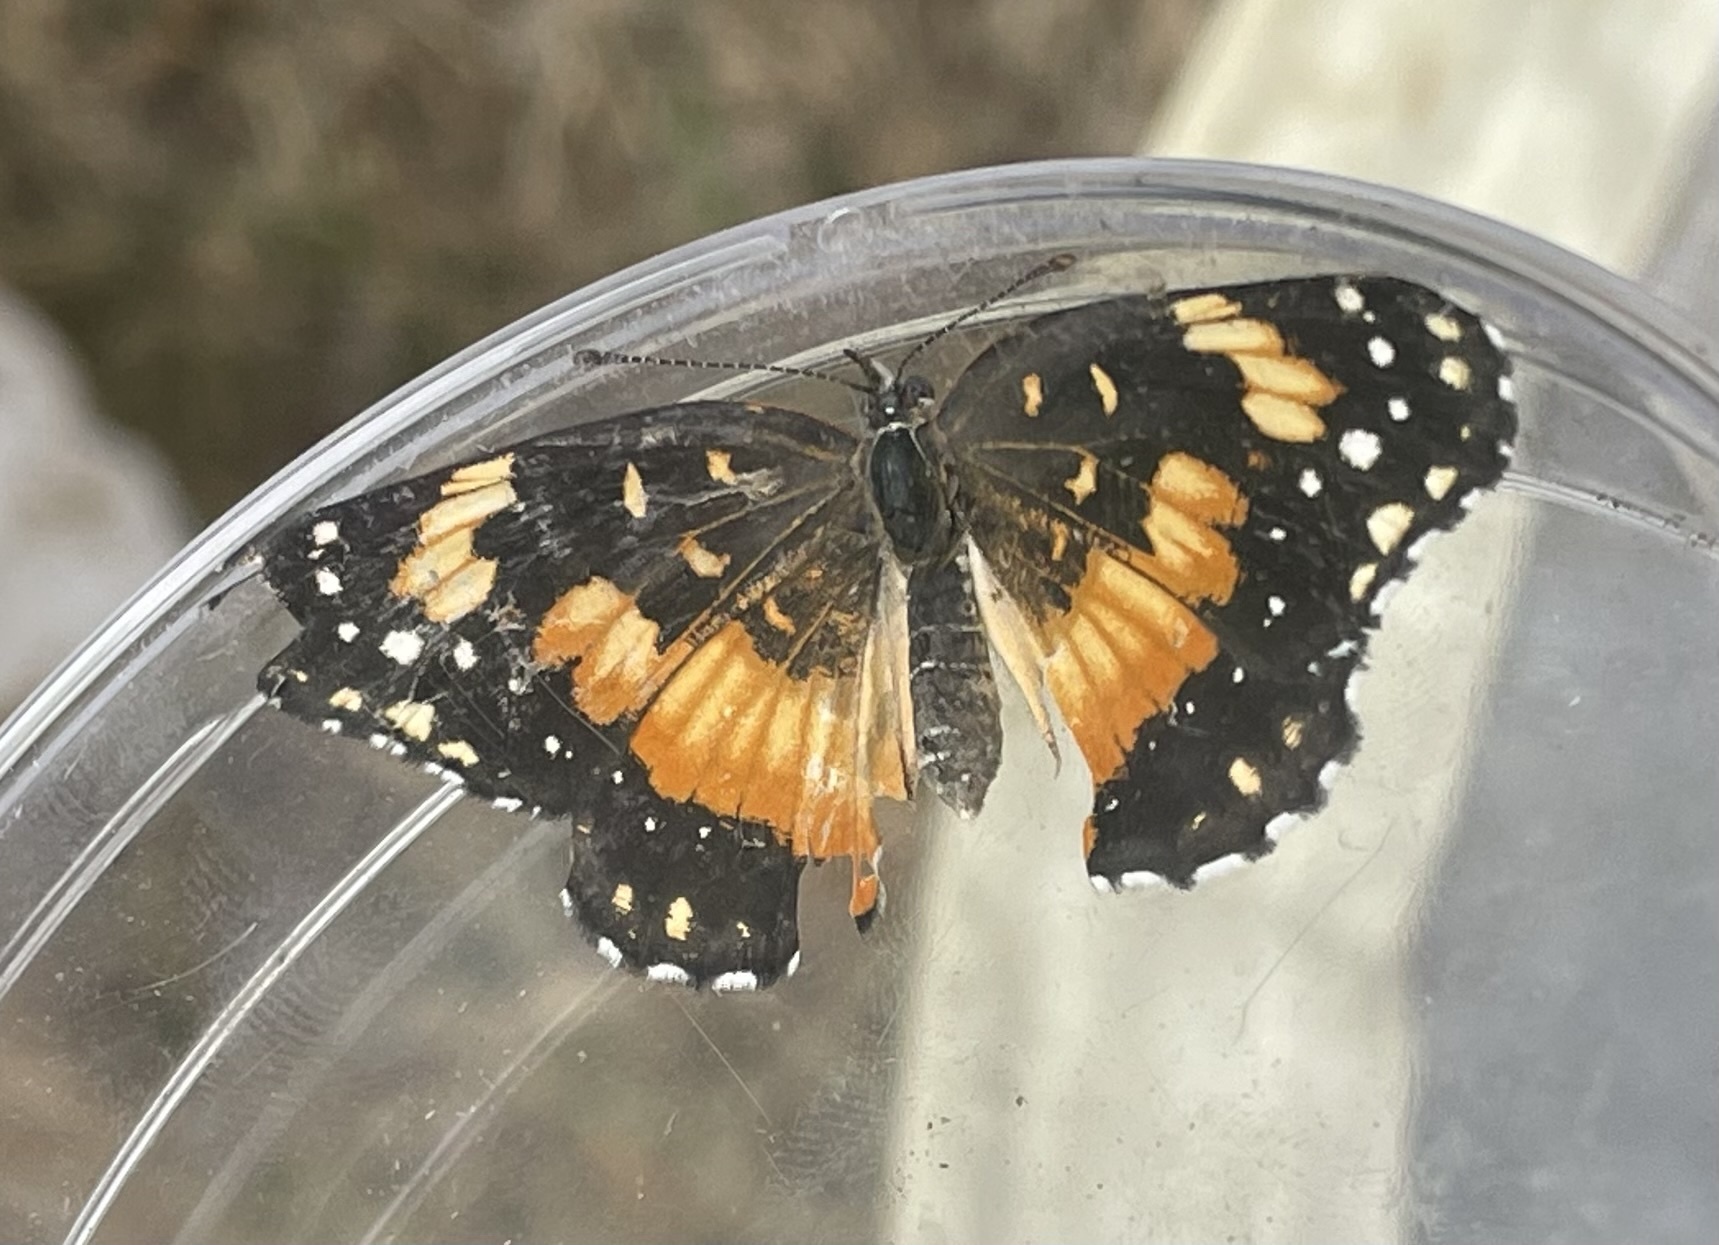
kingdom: Animalia
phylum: Arthropoda
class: Insecta
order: Lepidoptera
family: Nymphalidae
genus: Chlosyne
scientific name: Chlosyne lacinia
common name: Bordered patch
